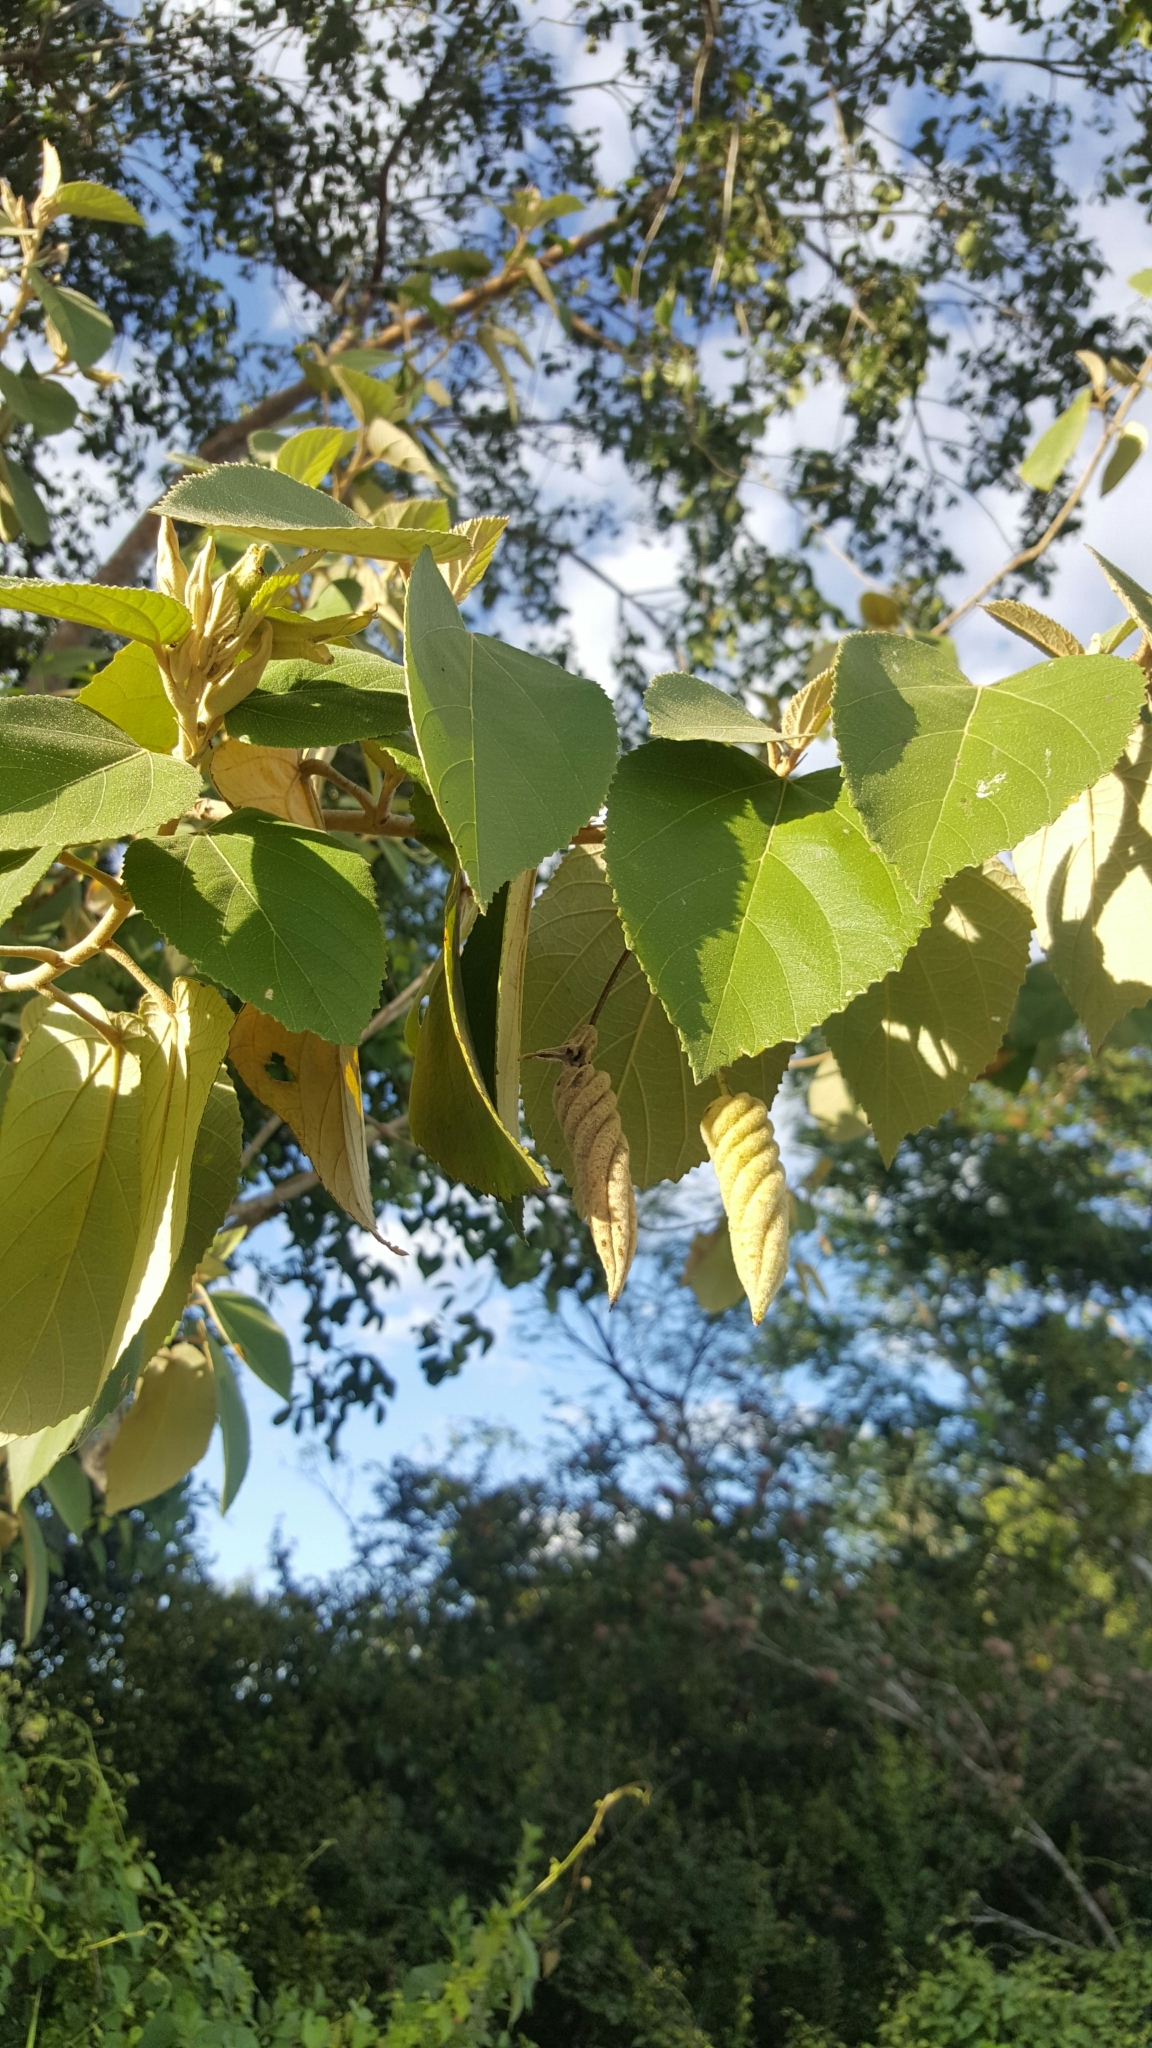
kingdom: Plantae
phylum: Tracheophyta
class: Magnoliopsida
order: Malvales
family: Malvaceae
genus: Helicteres
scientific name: Helicteres baruensis
